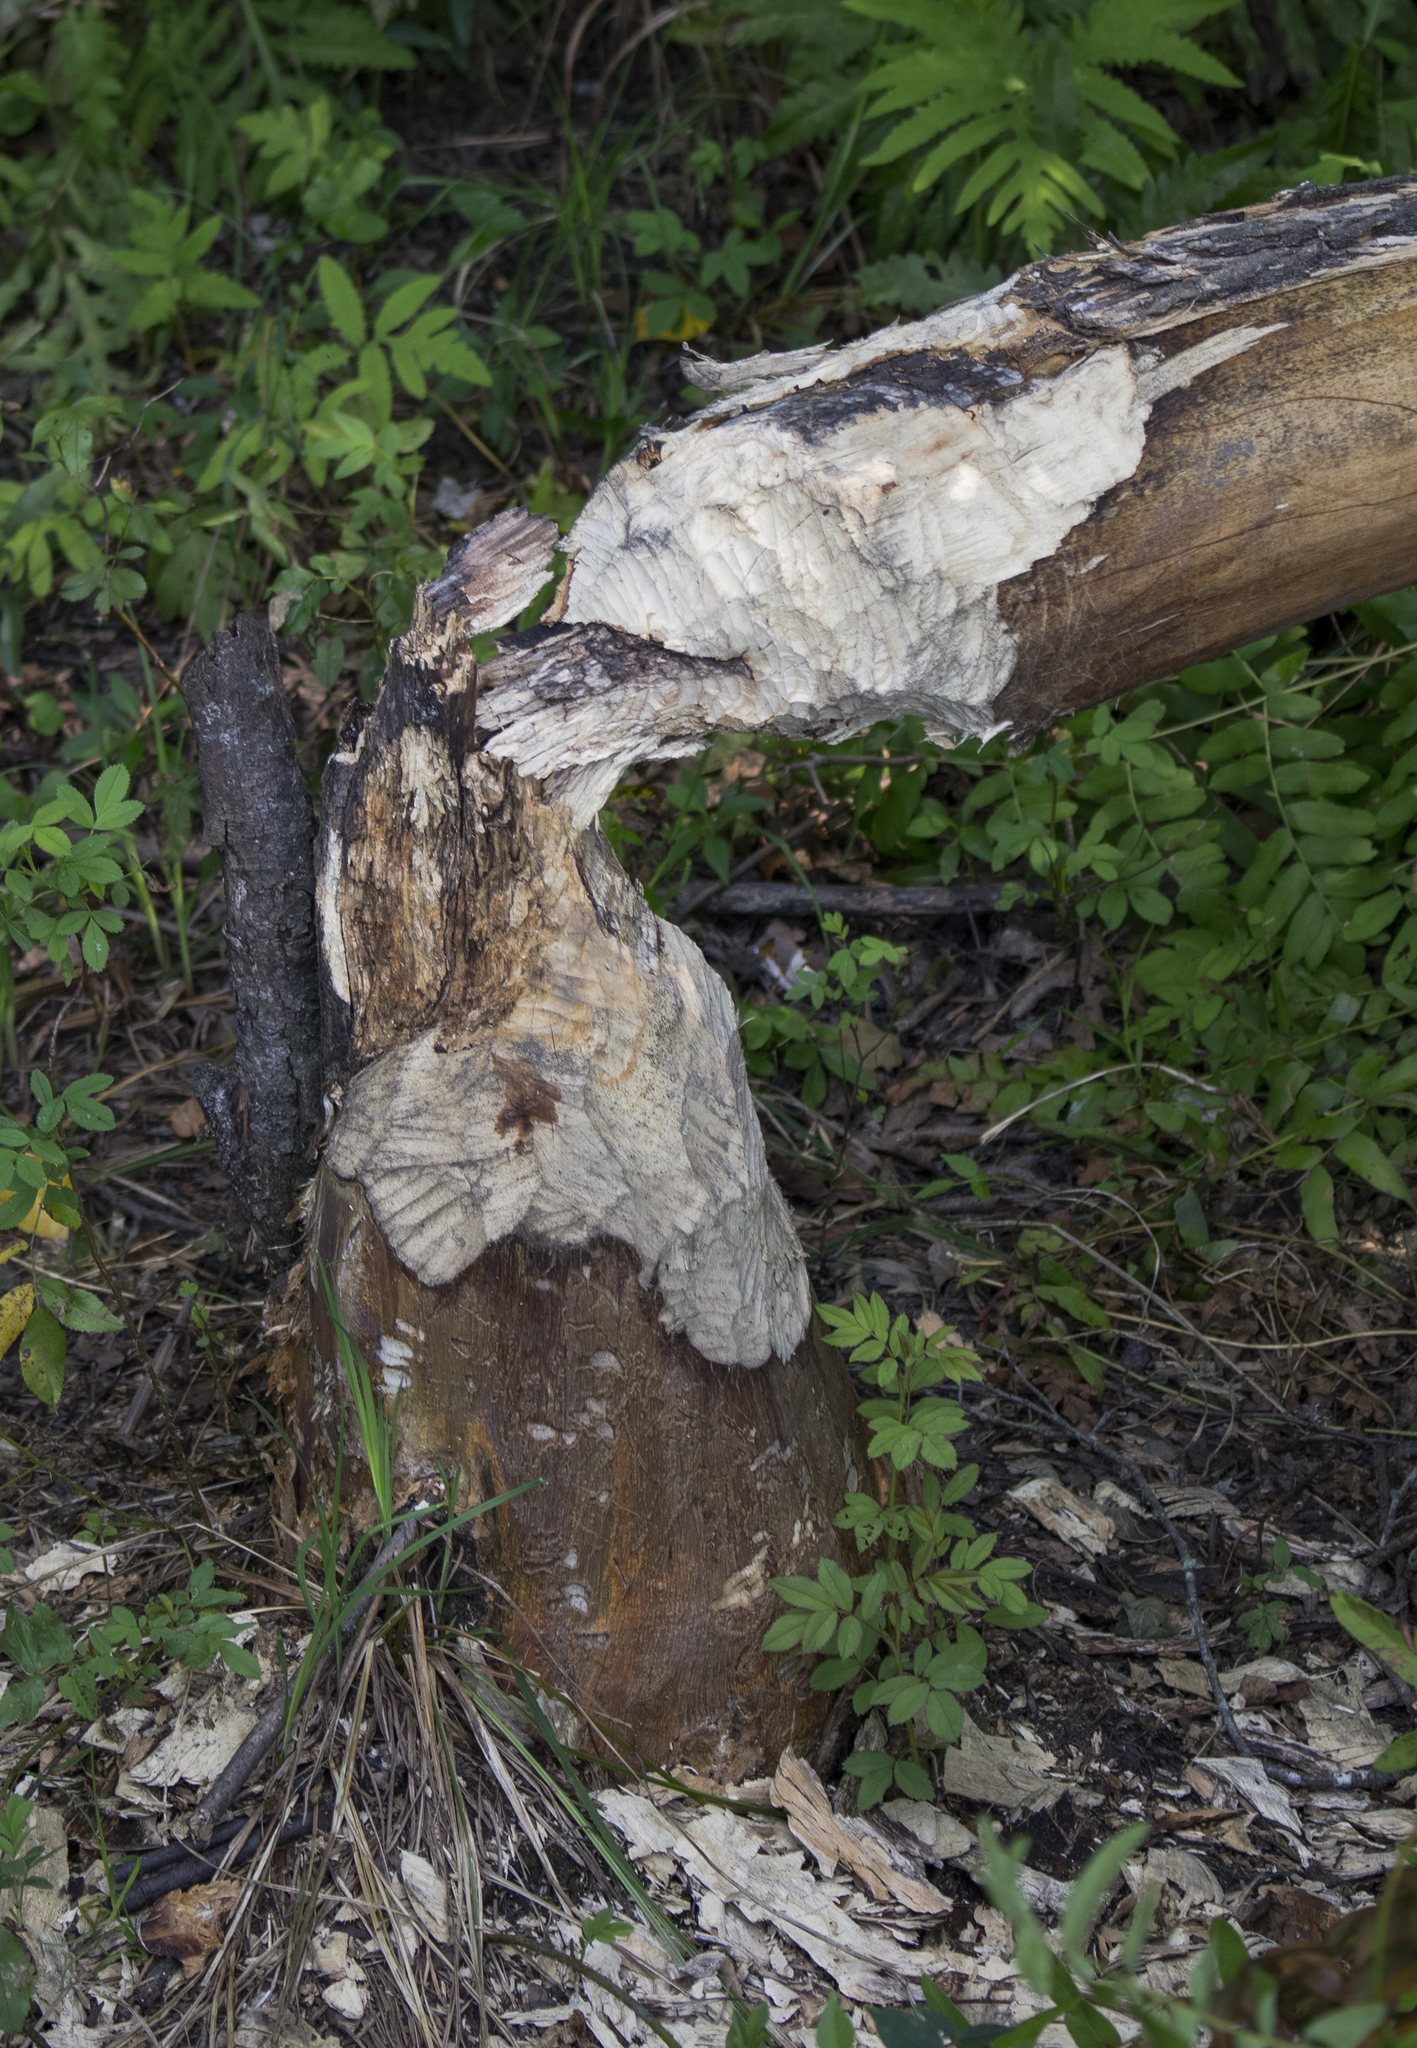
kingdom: Animalia
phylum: Chordata
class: Mammalia
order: Rodentia
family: Castoridae
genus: Castor
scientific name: Castor canadensis
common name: American beaver
